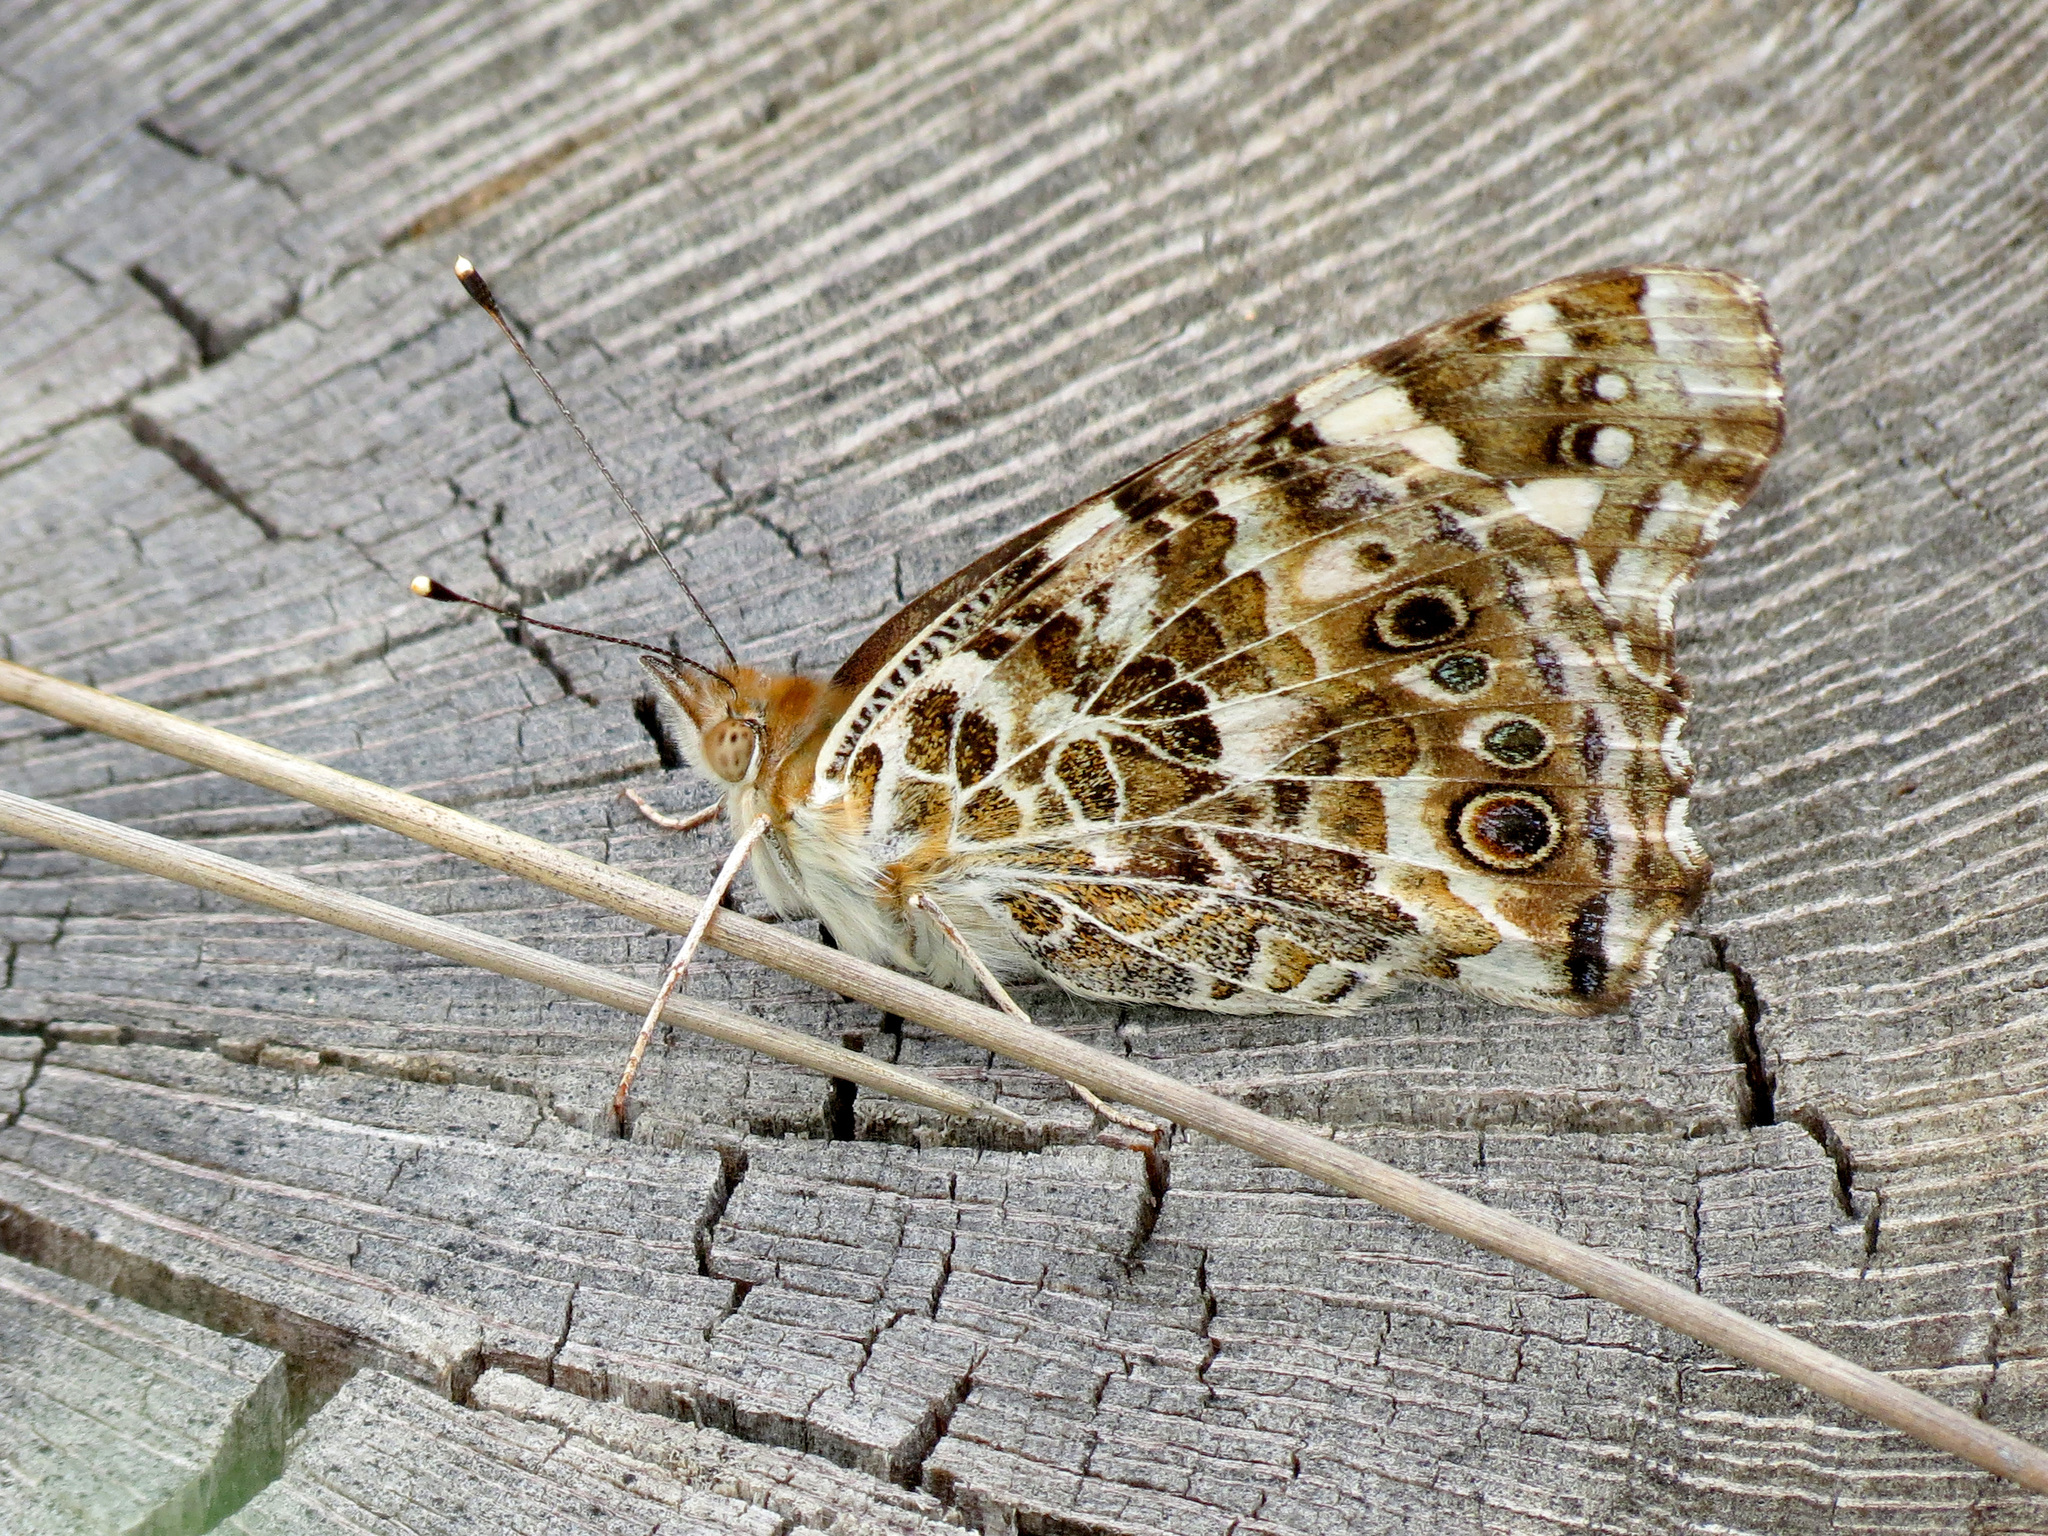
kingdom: Animalia
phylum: Arthropoda
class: Insecta
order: Lepidoptera
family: Nymphalidae
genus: Vanessa
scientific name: Vanessa cardui
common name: Painted lady
